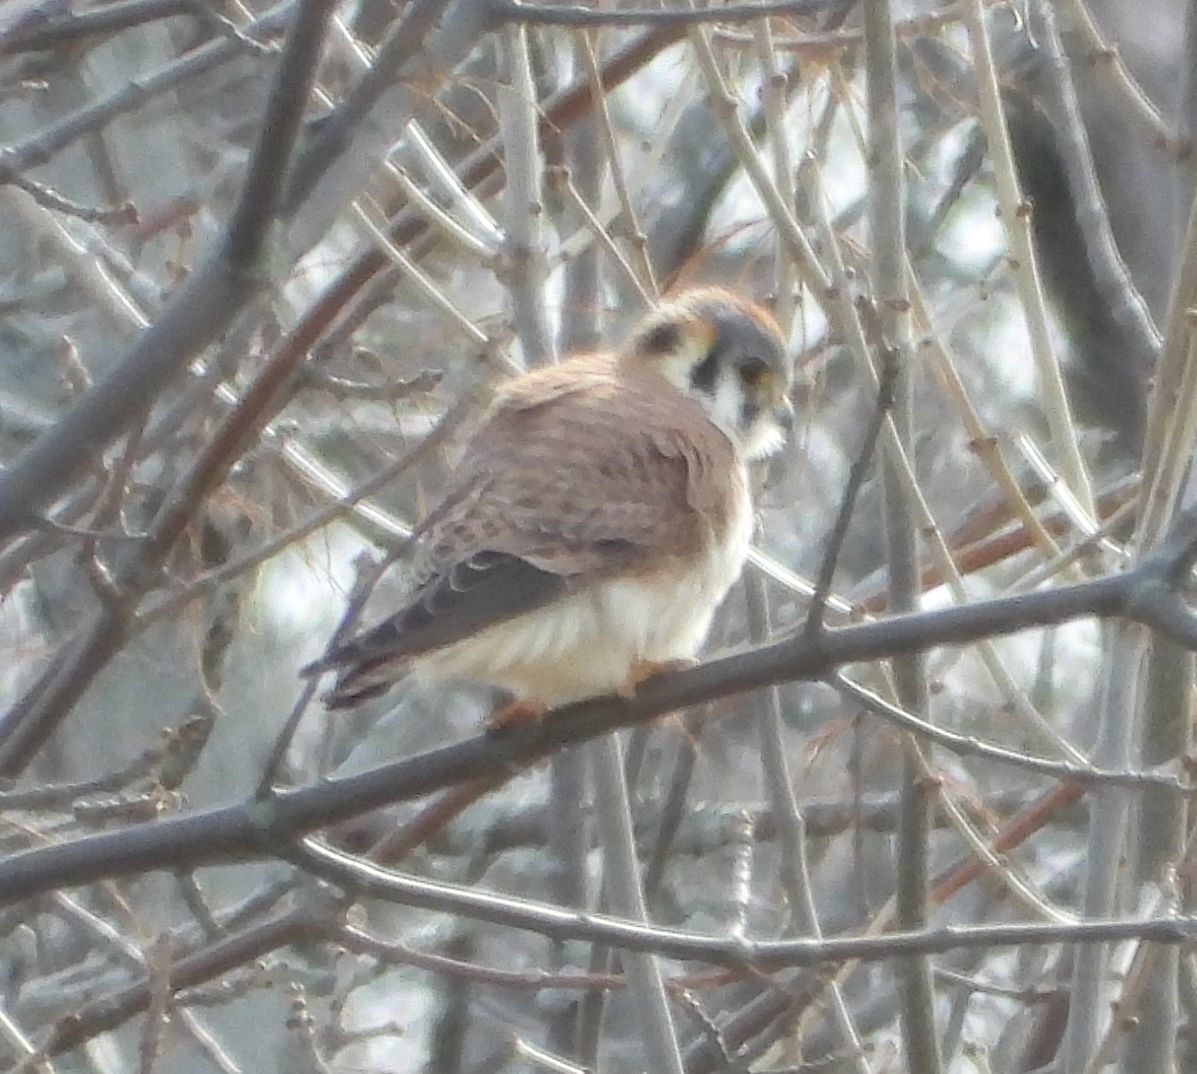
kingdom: Animalia
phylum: Chordata
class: Aves
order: Falconiformes
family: Falconidae
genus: Falco
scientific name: Falco sparverius
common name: American kestrel
